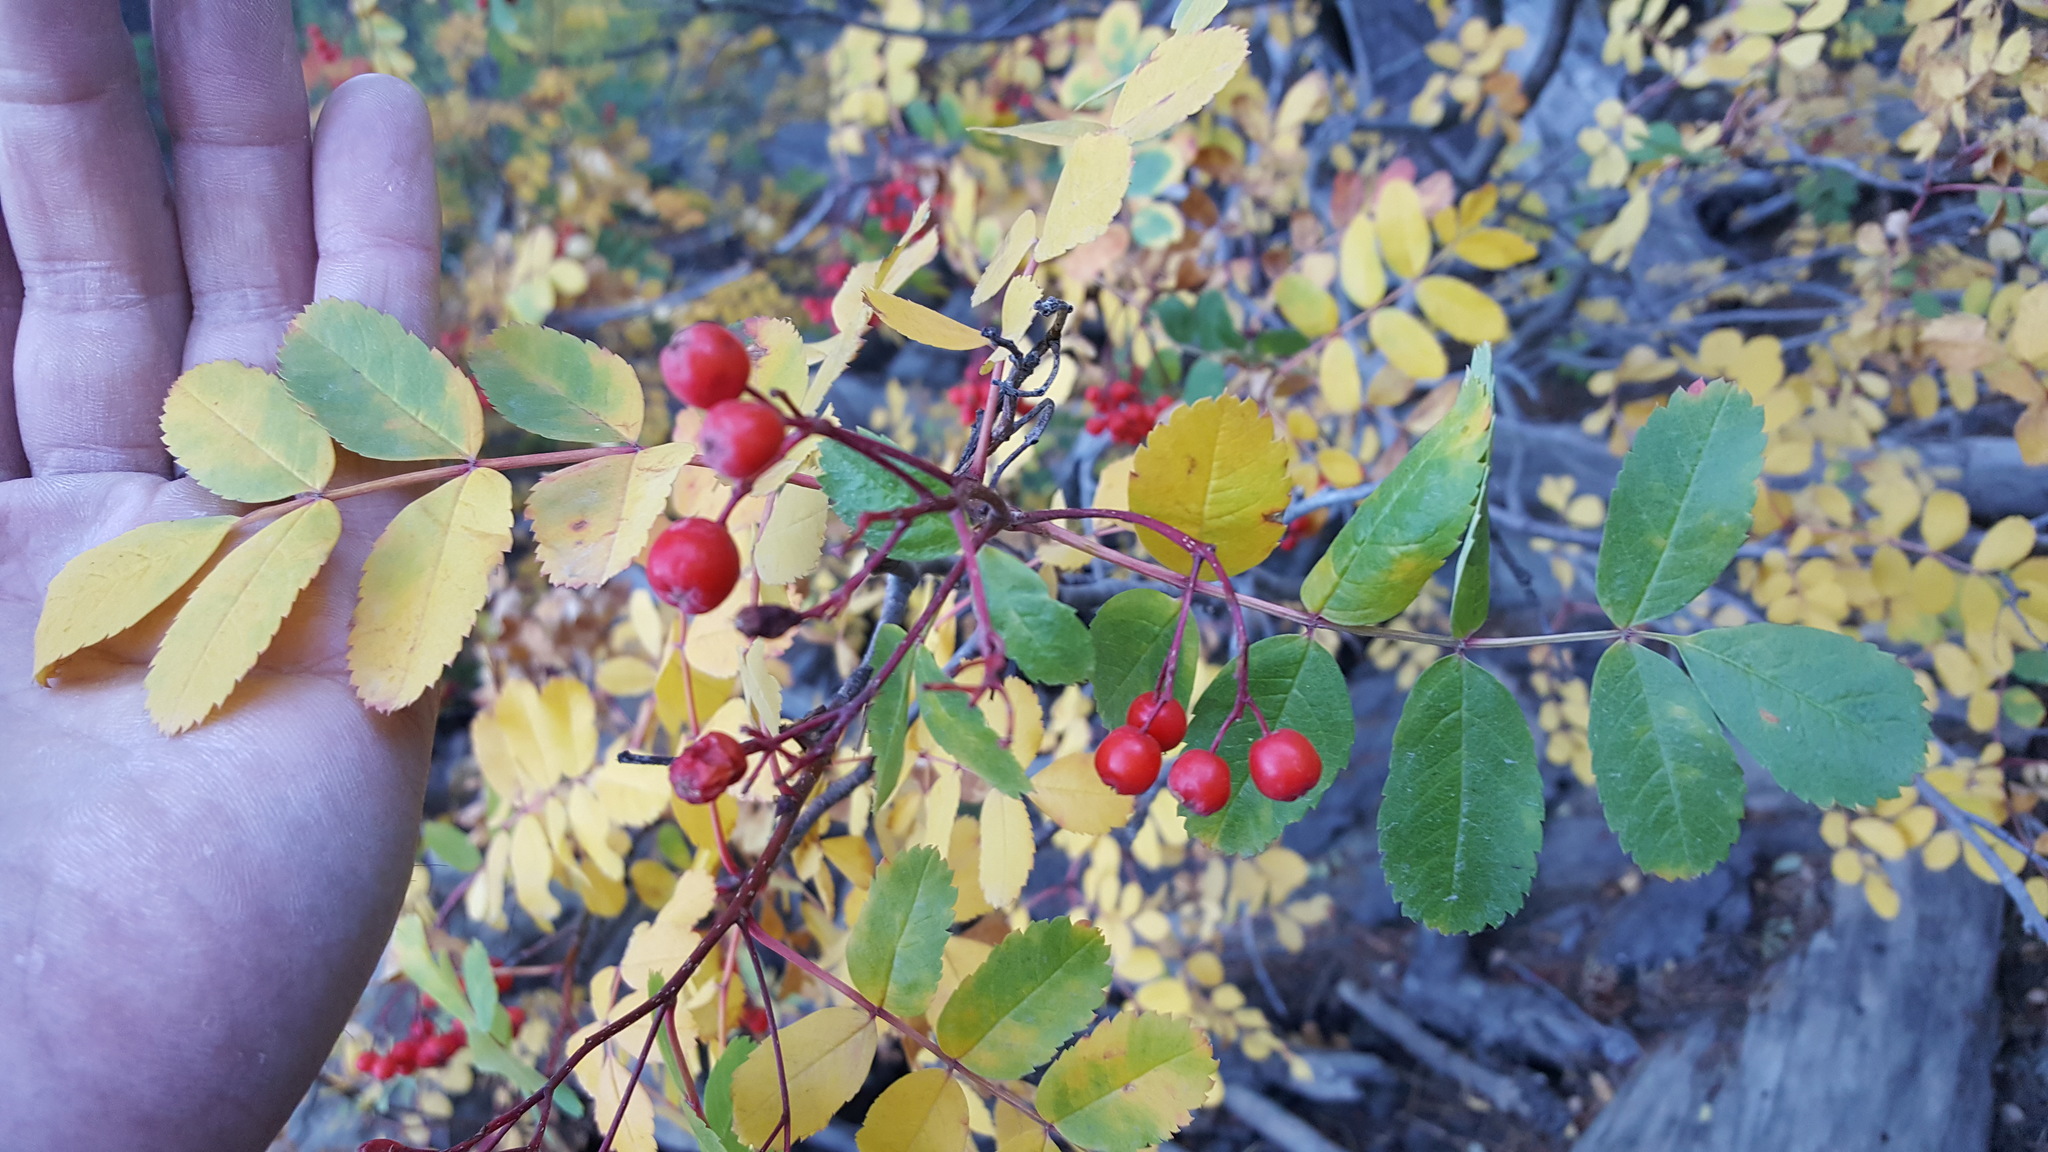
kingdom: Plantae
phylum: Tracheophyta
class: Magnoliopsida
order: Rosales
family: Rosaceae
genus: Sorbus
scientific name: Sorbus
